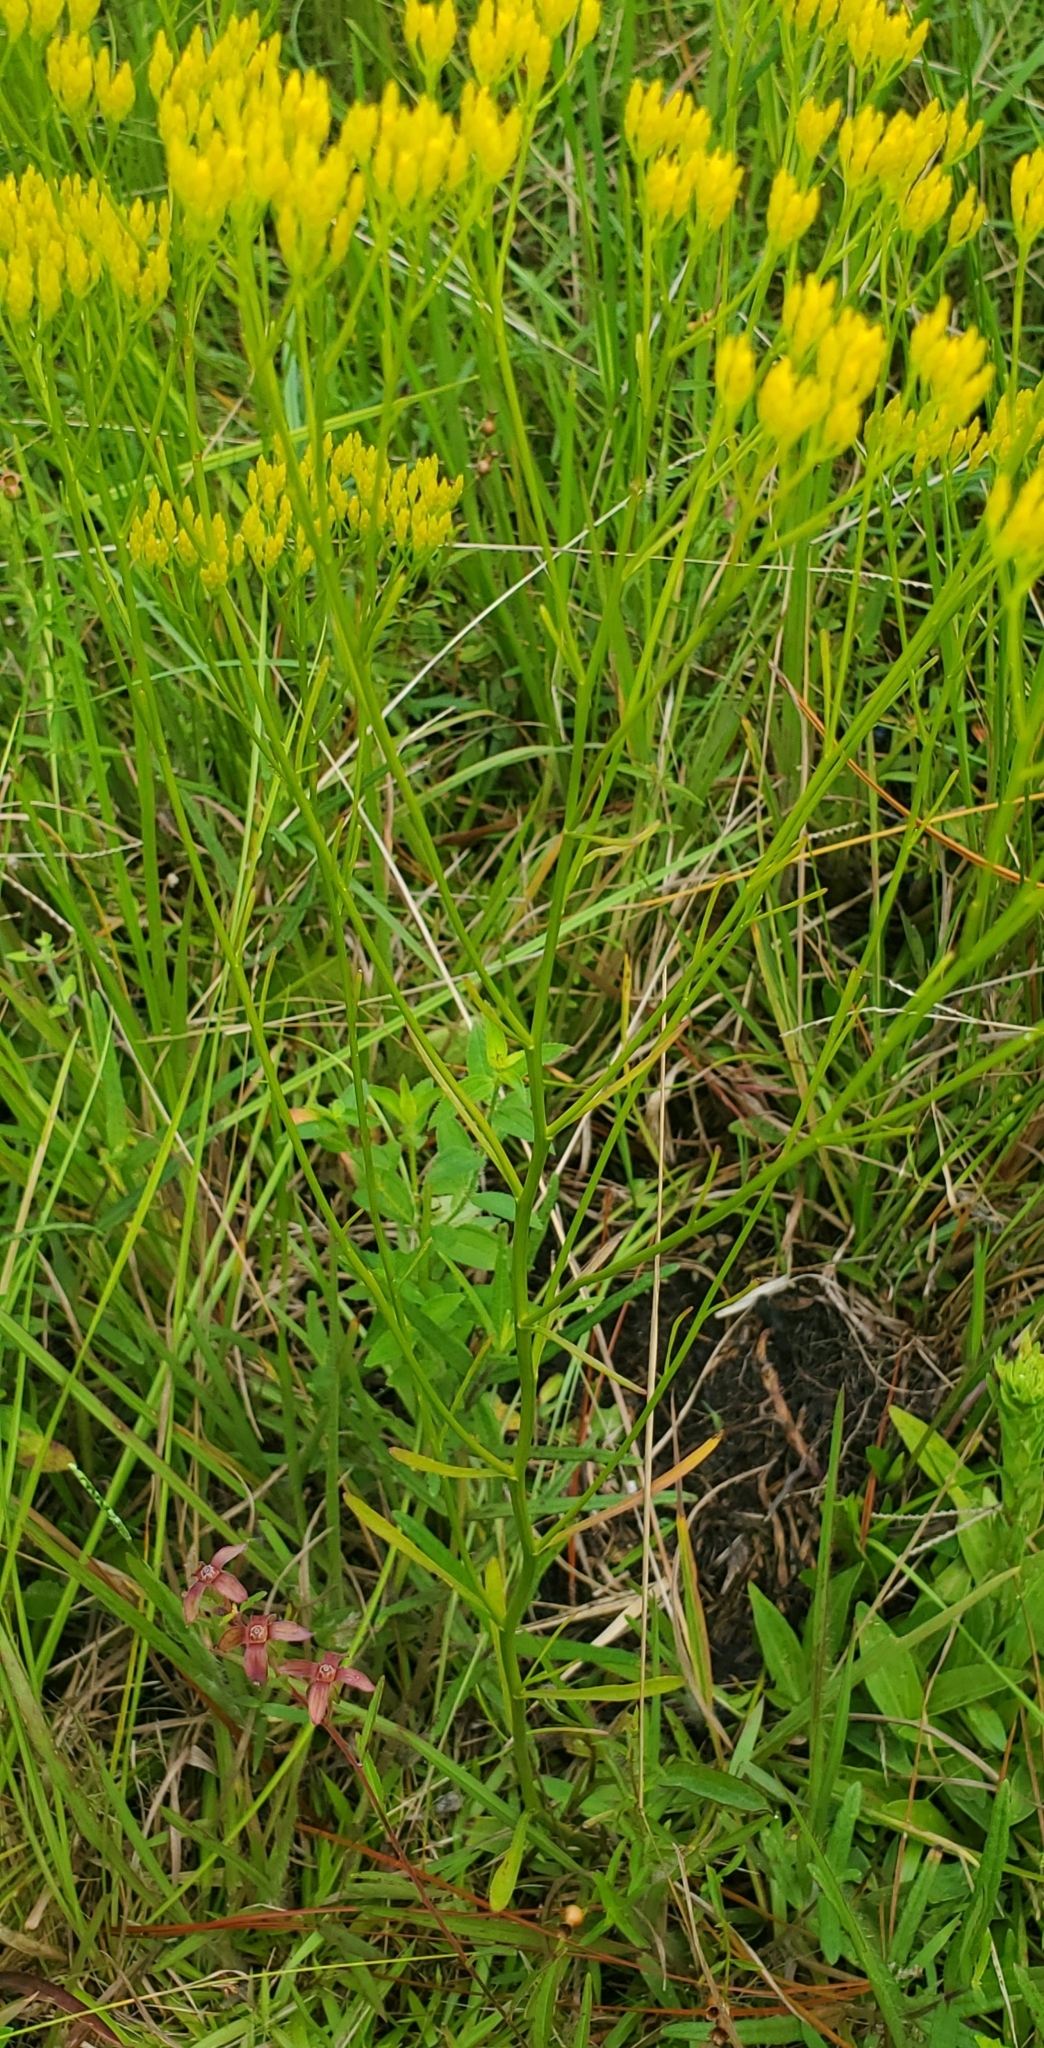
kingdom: Plantae
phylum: Tracheophyta
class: Magnoliopsida
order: Asterales
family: Asteraceae
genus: Bigelowia
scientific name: Bigelowia nudata
